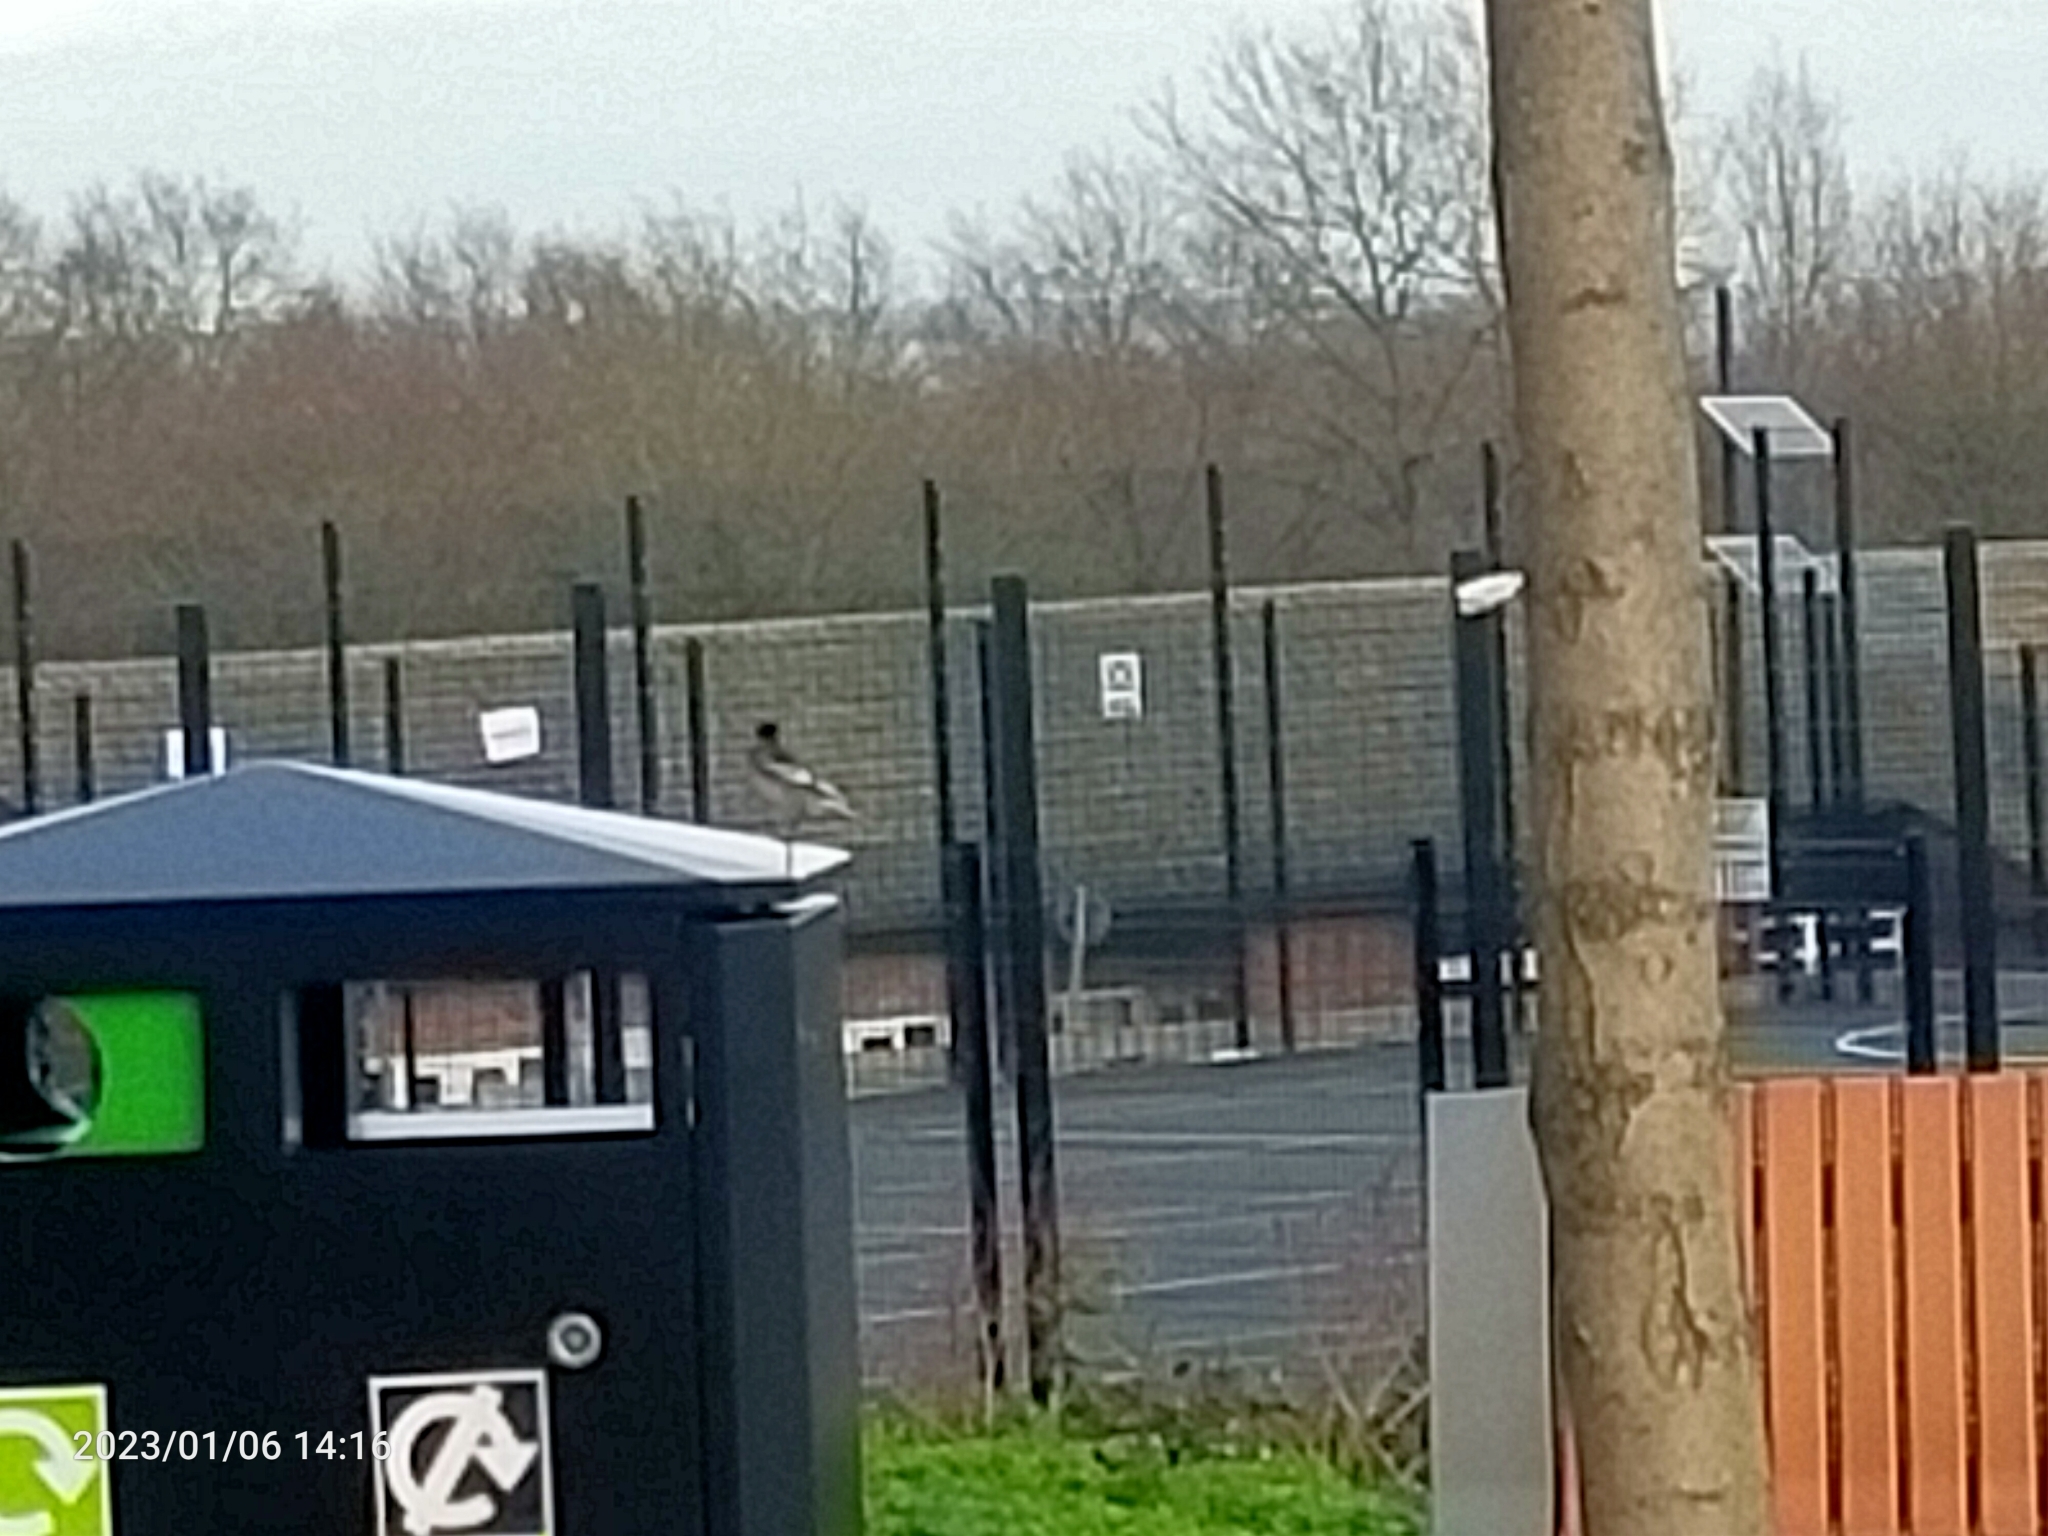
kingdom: Animalia
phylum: Chordata
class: Aves
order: Passeriformes
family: Motacillidae
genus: Motacilla
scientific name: Motacilla alba
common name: White wagtail
